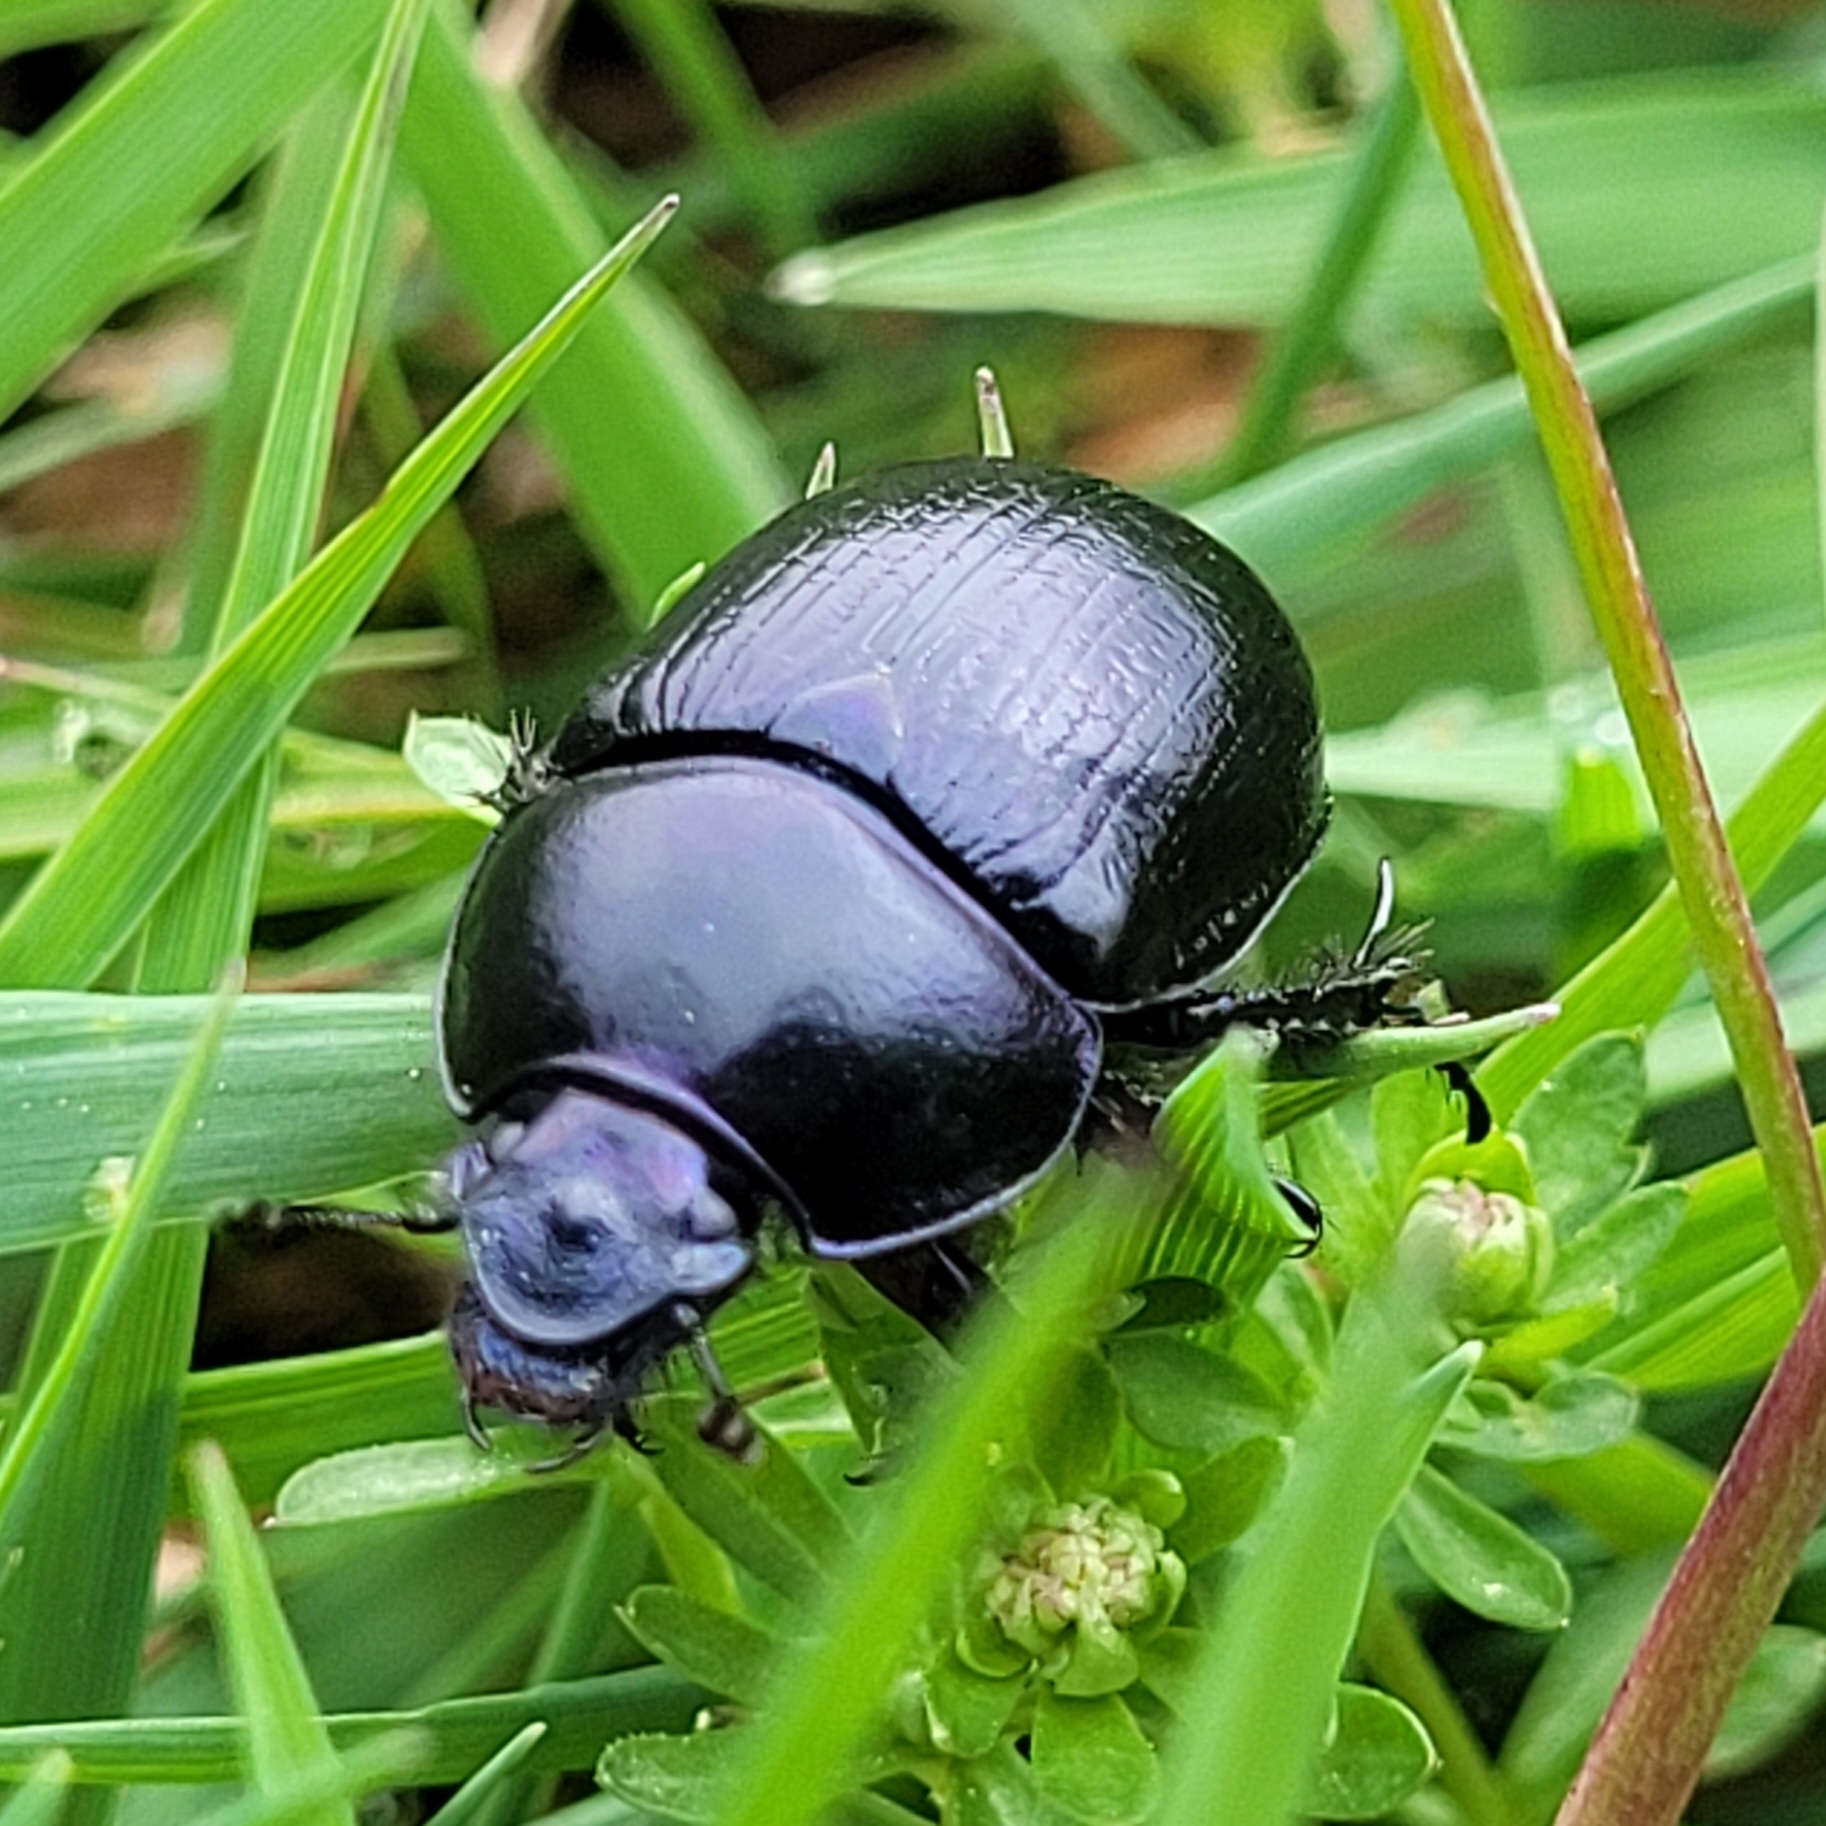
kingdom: Animalia
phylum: Arthropoda
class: Insecta
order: Coleoptera
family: Geotrupidae
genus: Anoplotrupes
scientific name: Anoplotrupes stercorosus
